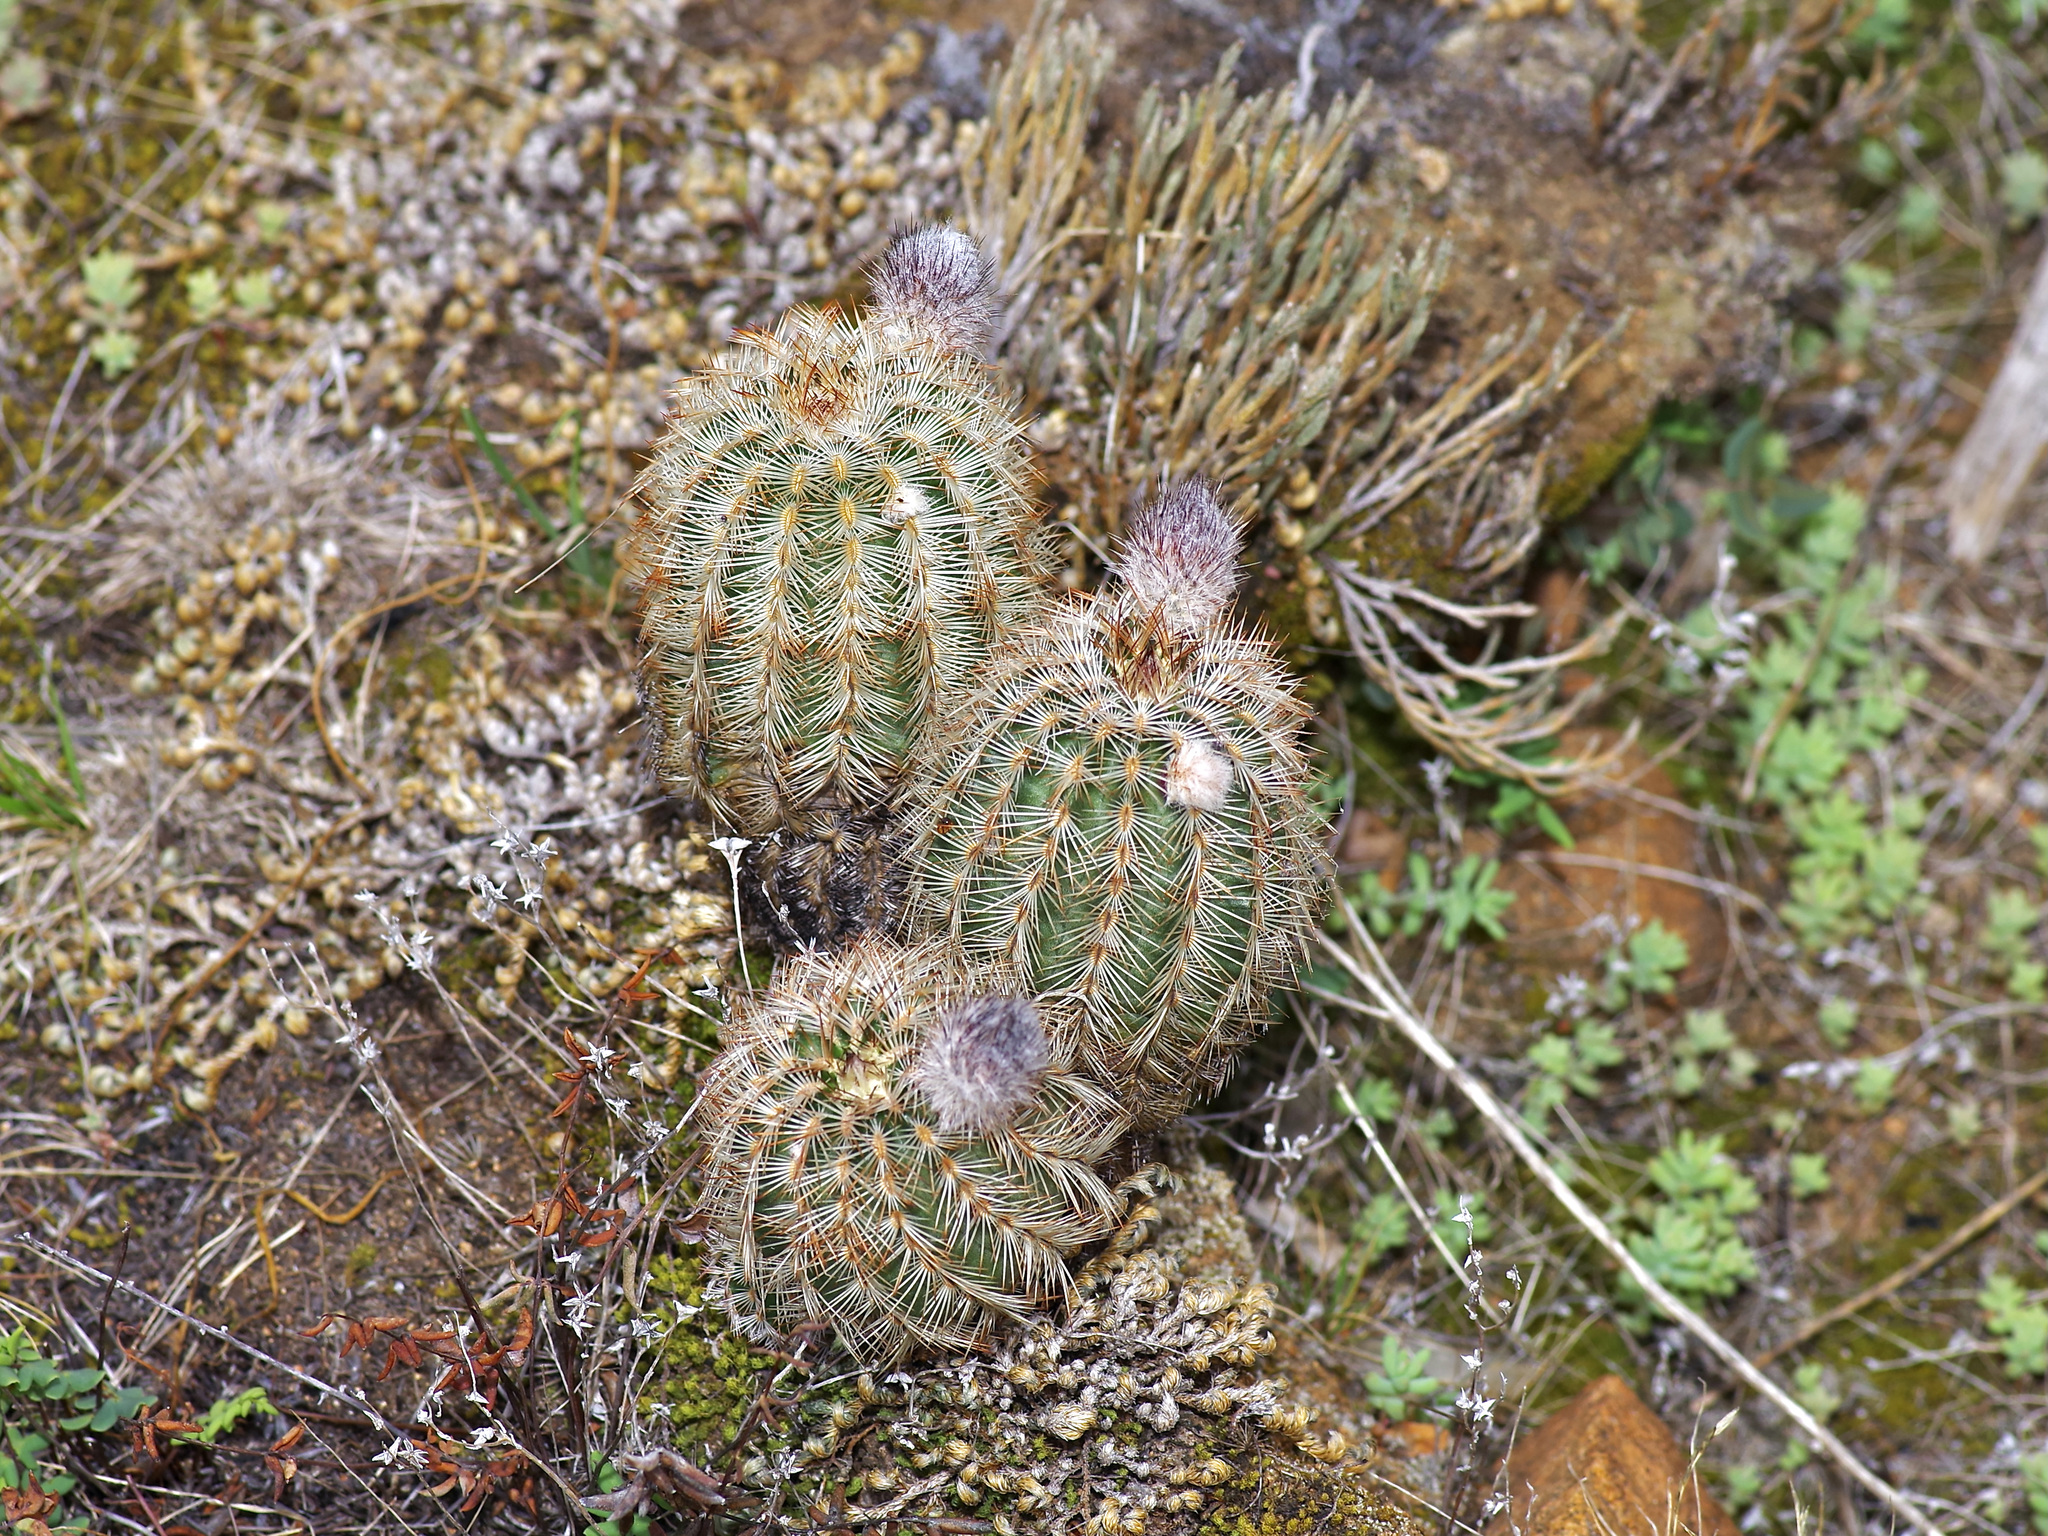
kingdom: Plantae
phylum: Tracheophyta
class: Magnoliopsida
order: Caryophyllales
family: Cactaceae
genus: Echinocereus
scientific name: Echinocereus reichenbachii
